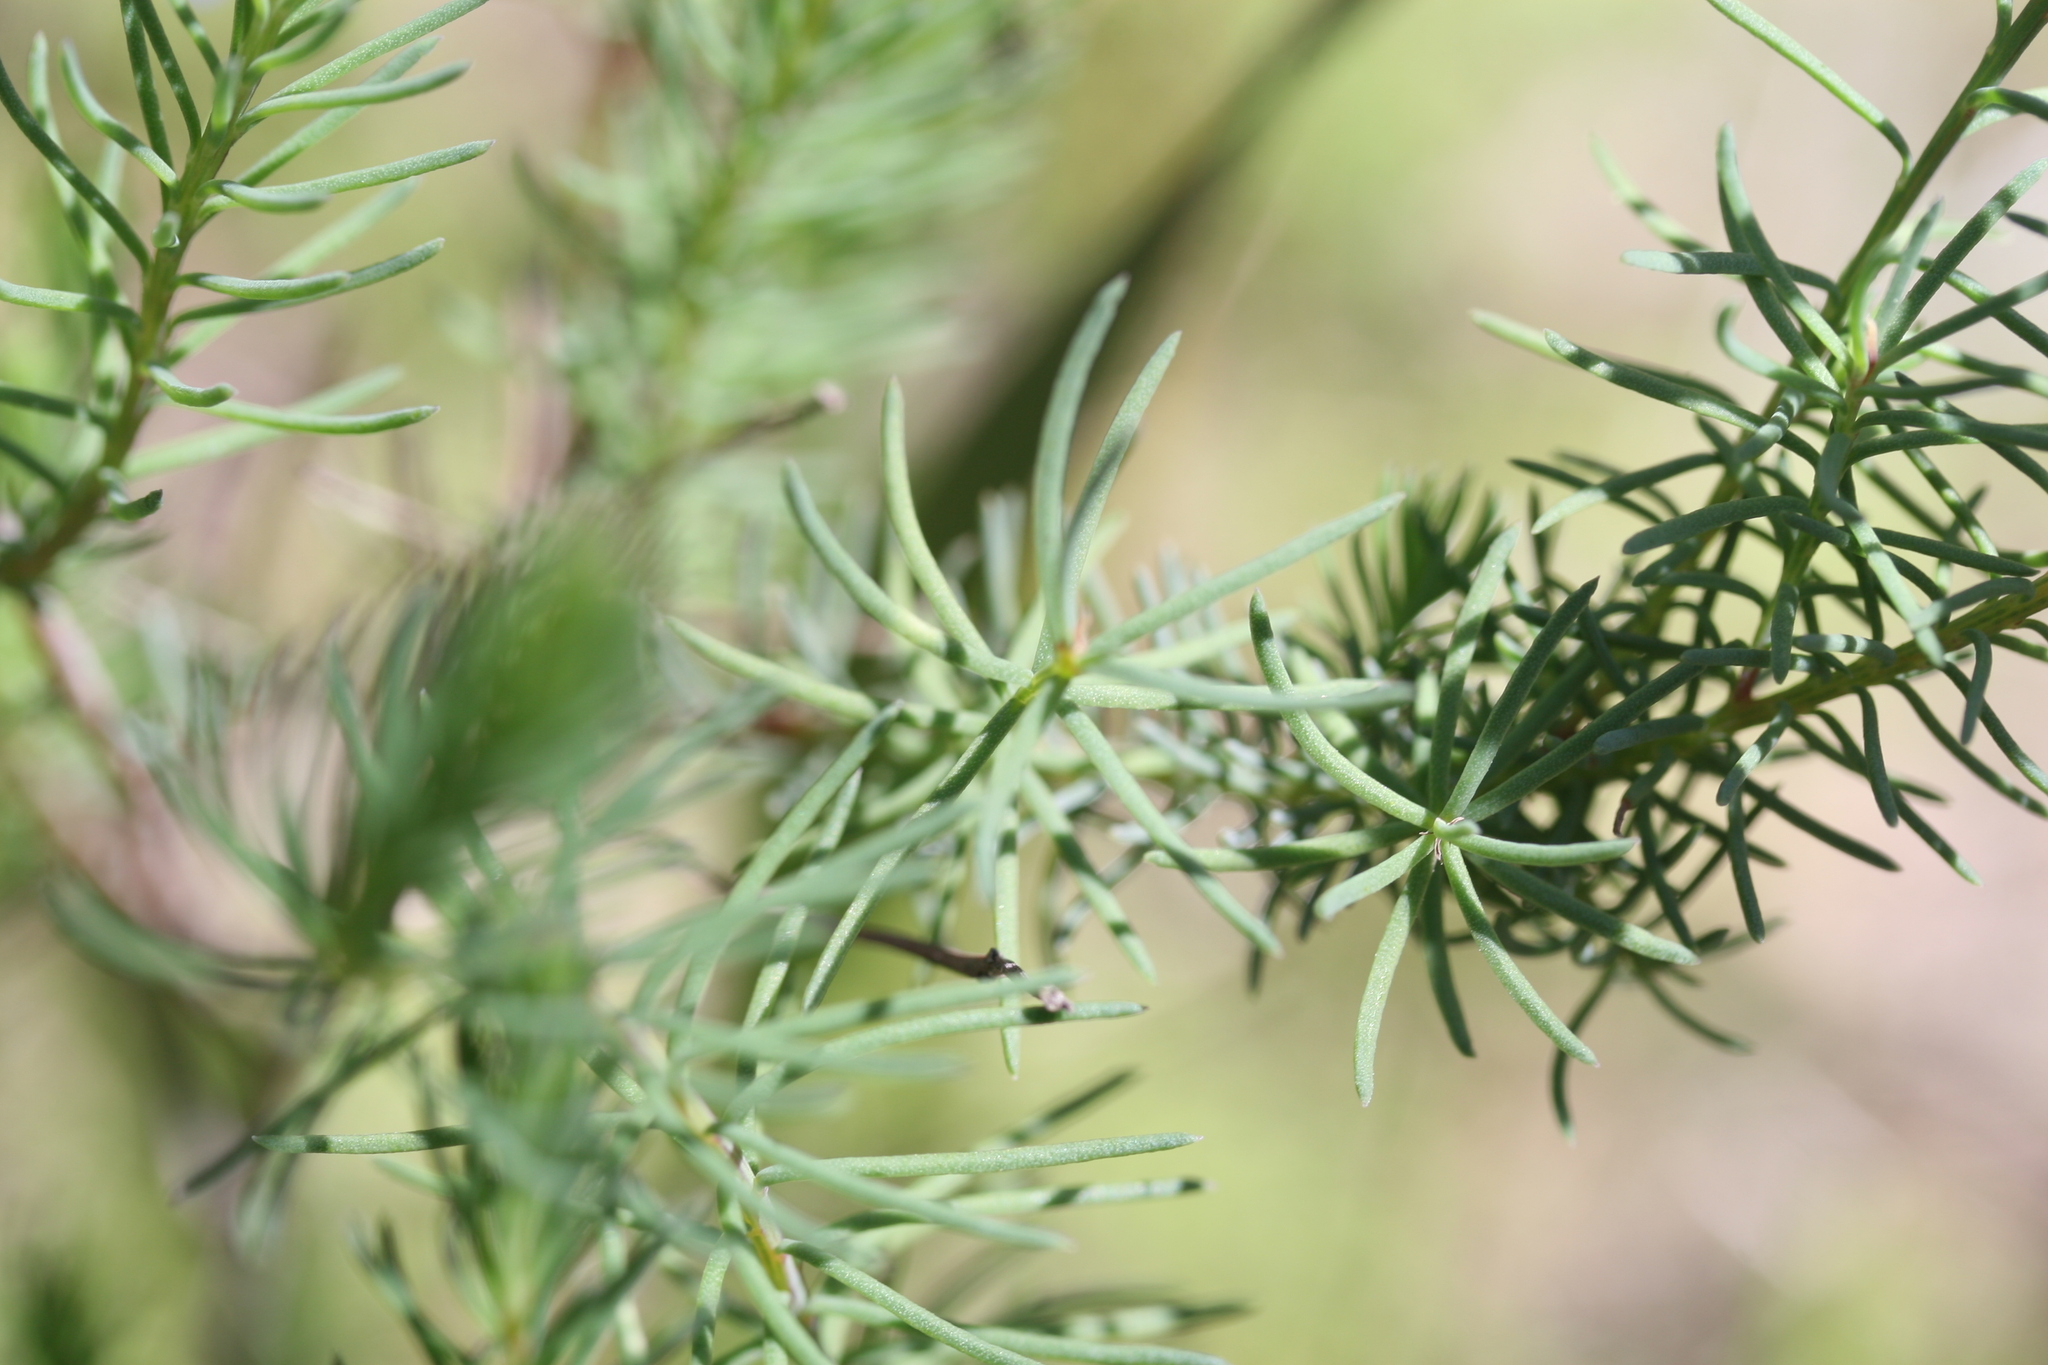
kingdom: Plantae
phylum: Tracheophyta
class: Magnoliopsida
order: Asterales
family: Goodeniaceae
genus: Lechenaultia
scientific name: Lechenaultia biloba
